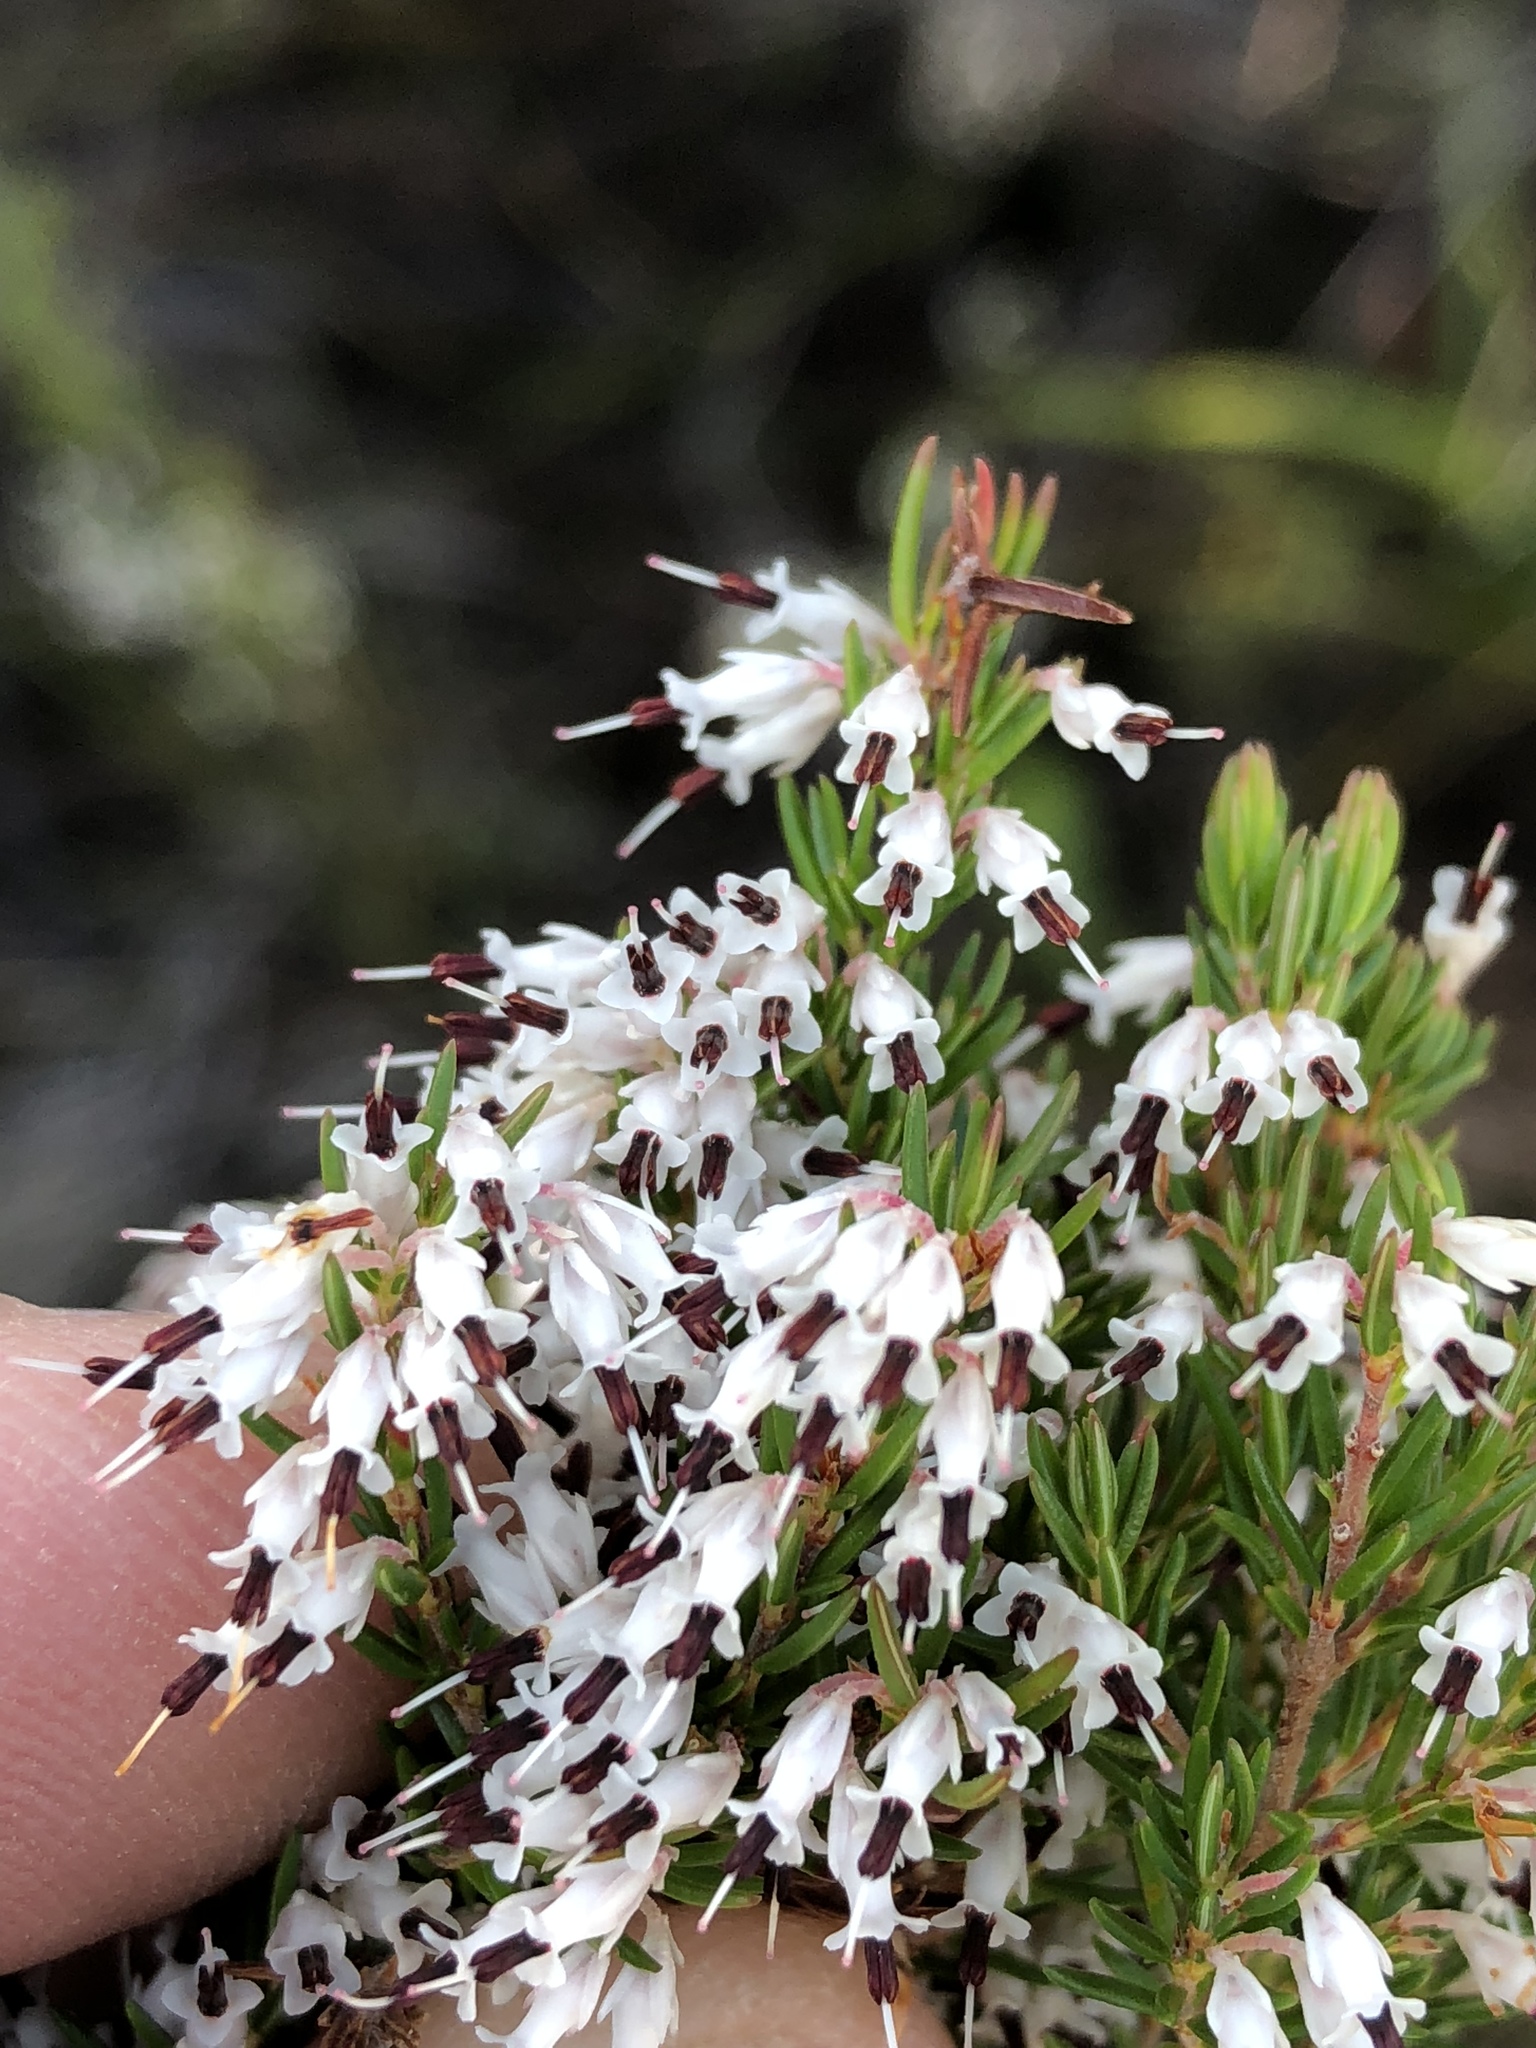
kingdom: Plantae
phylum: Tracheophyta
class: Magnoliopsida
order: Ericales
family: Ericaceae
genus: Erica
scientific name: Erica fuscescens
